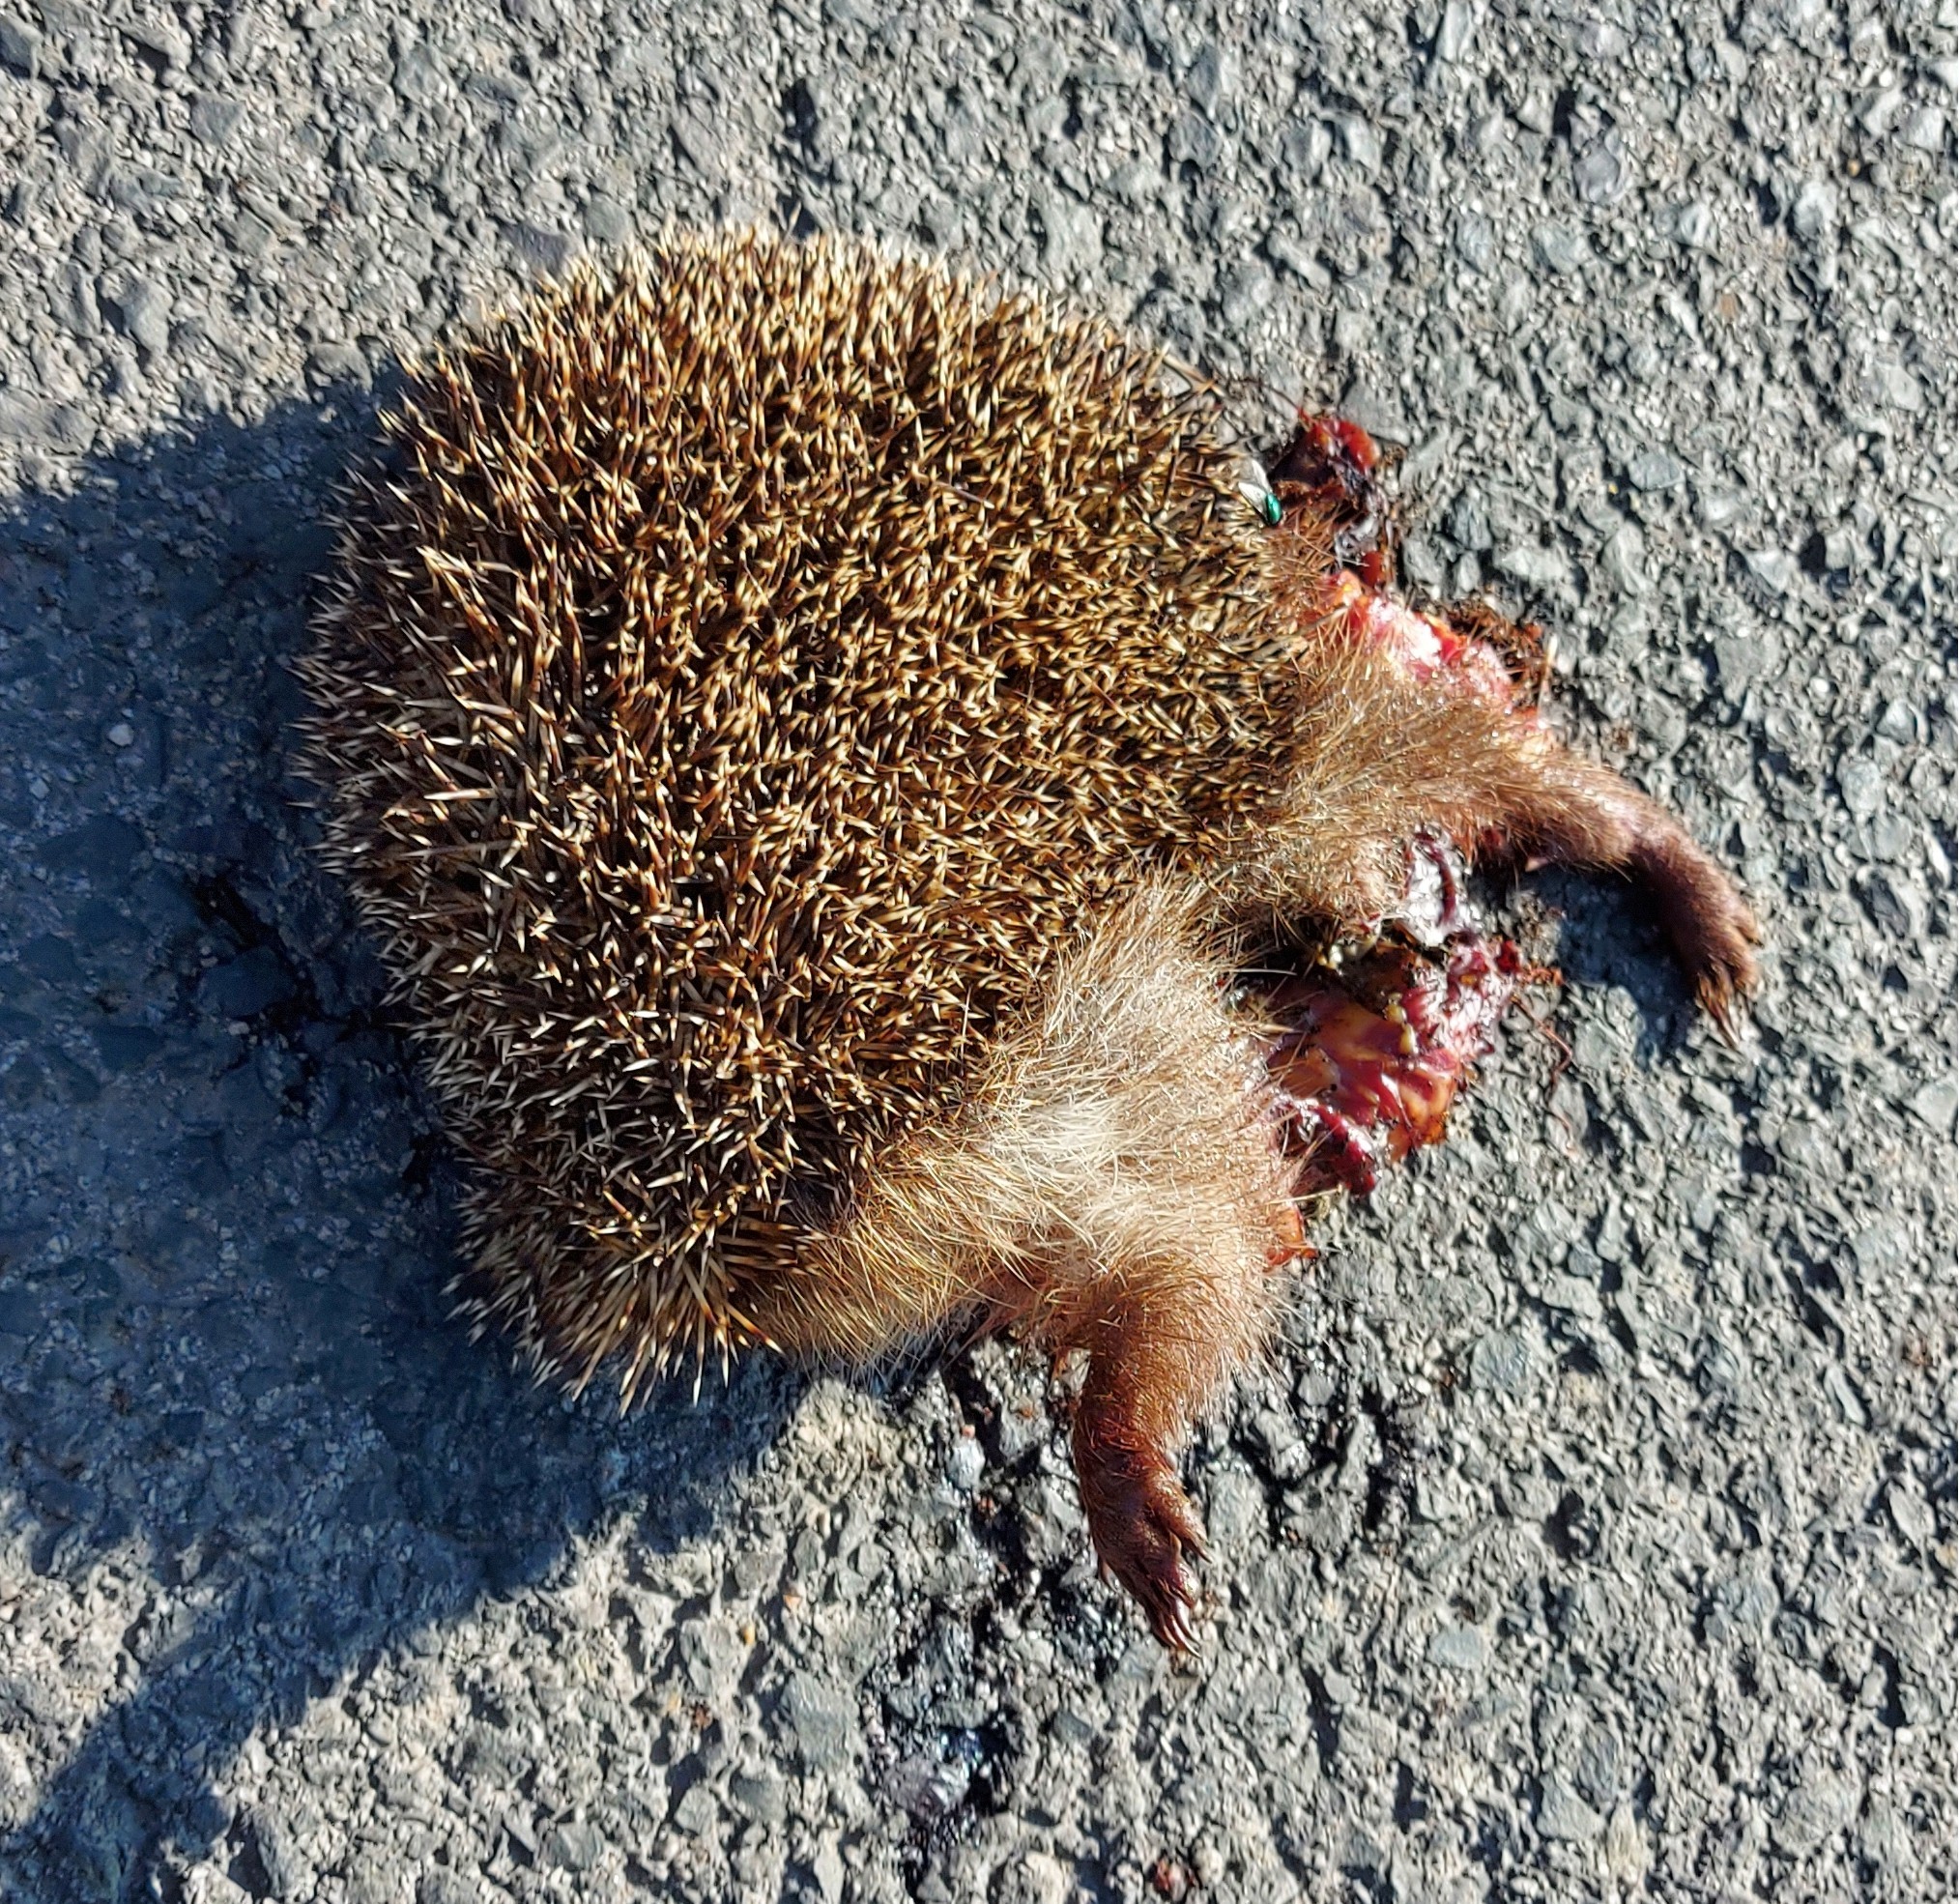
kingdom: Animalia
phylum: Chordata
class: Mammalia
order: Erinaceomorpha
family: Erinaceidae
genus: Erinaceus
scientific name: Erinaceus roumanicus
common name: Northern white-breasted hedgehog
